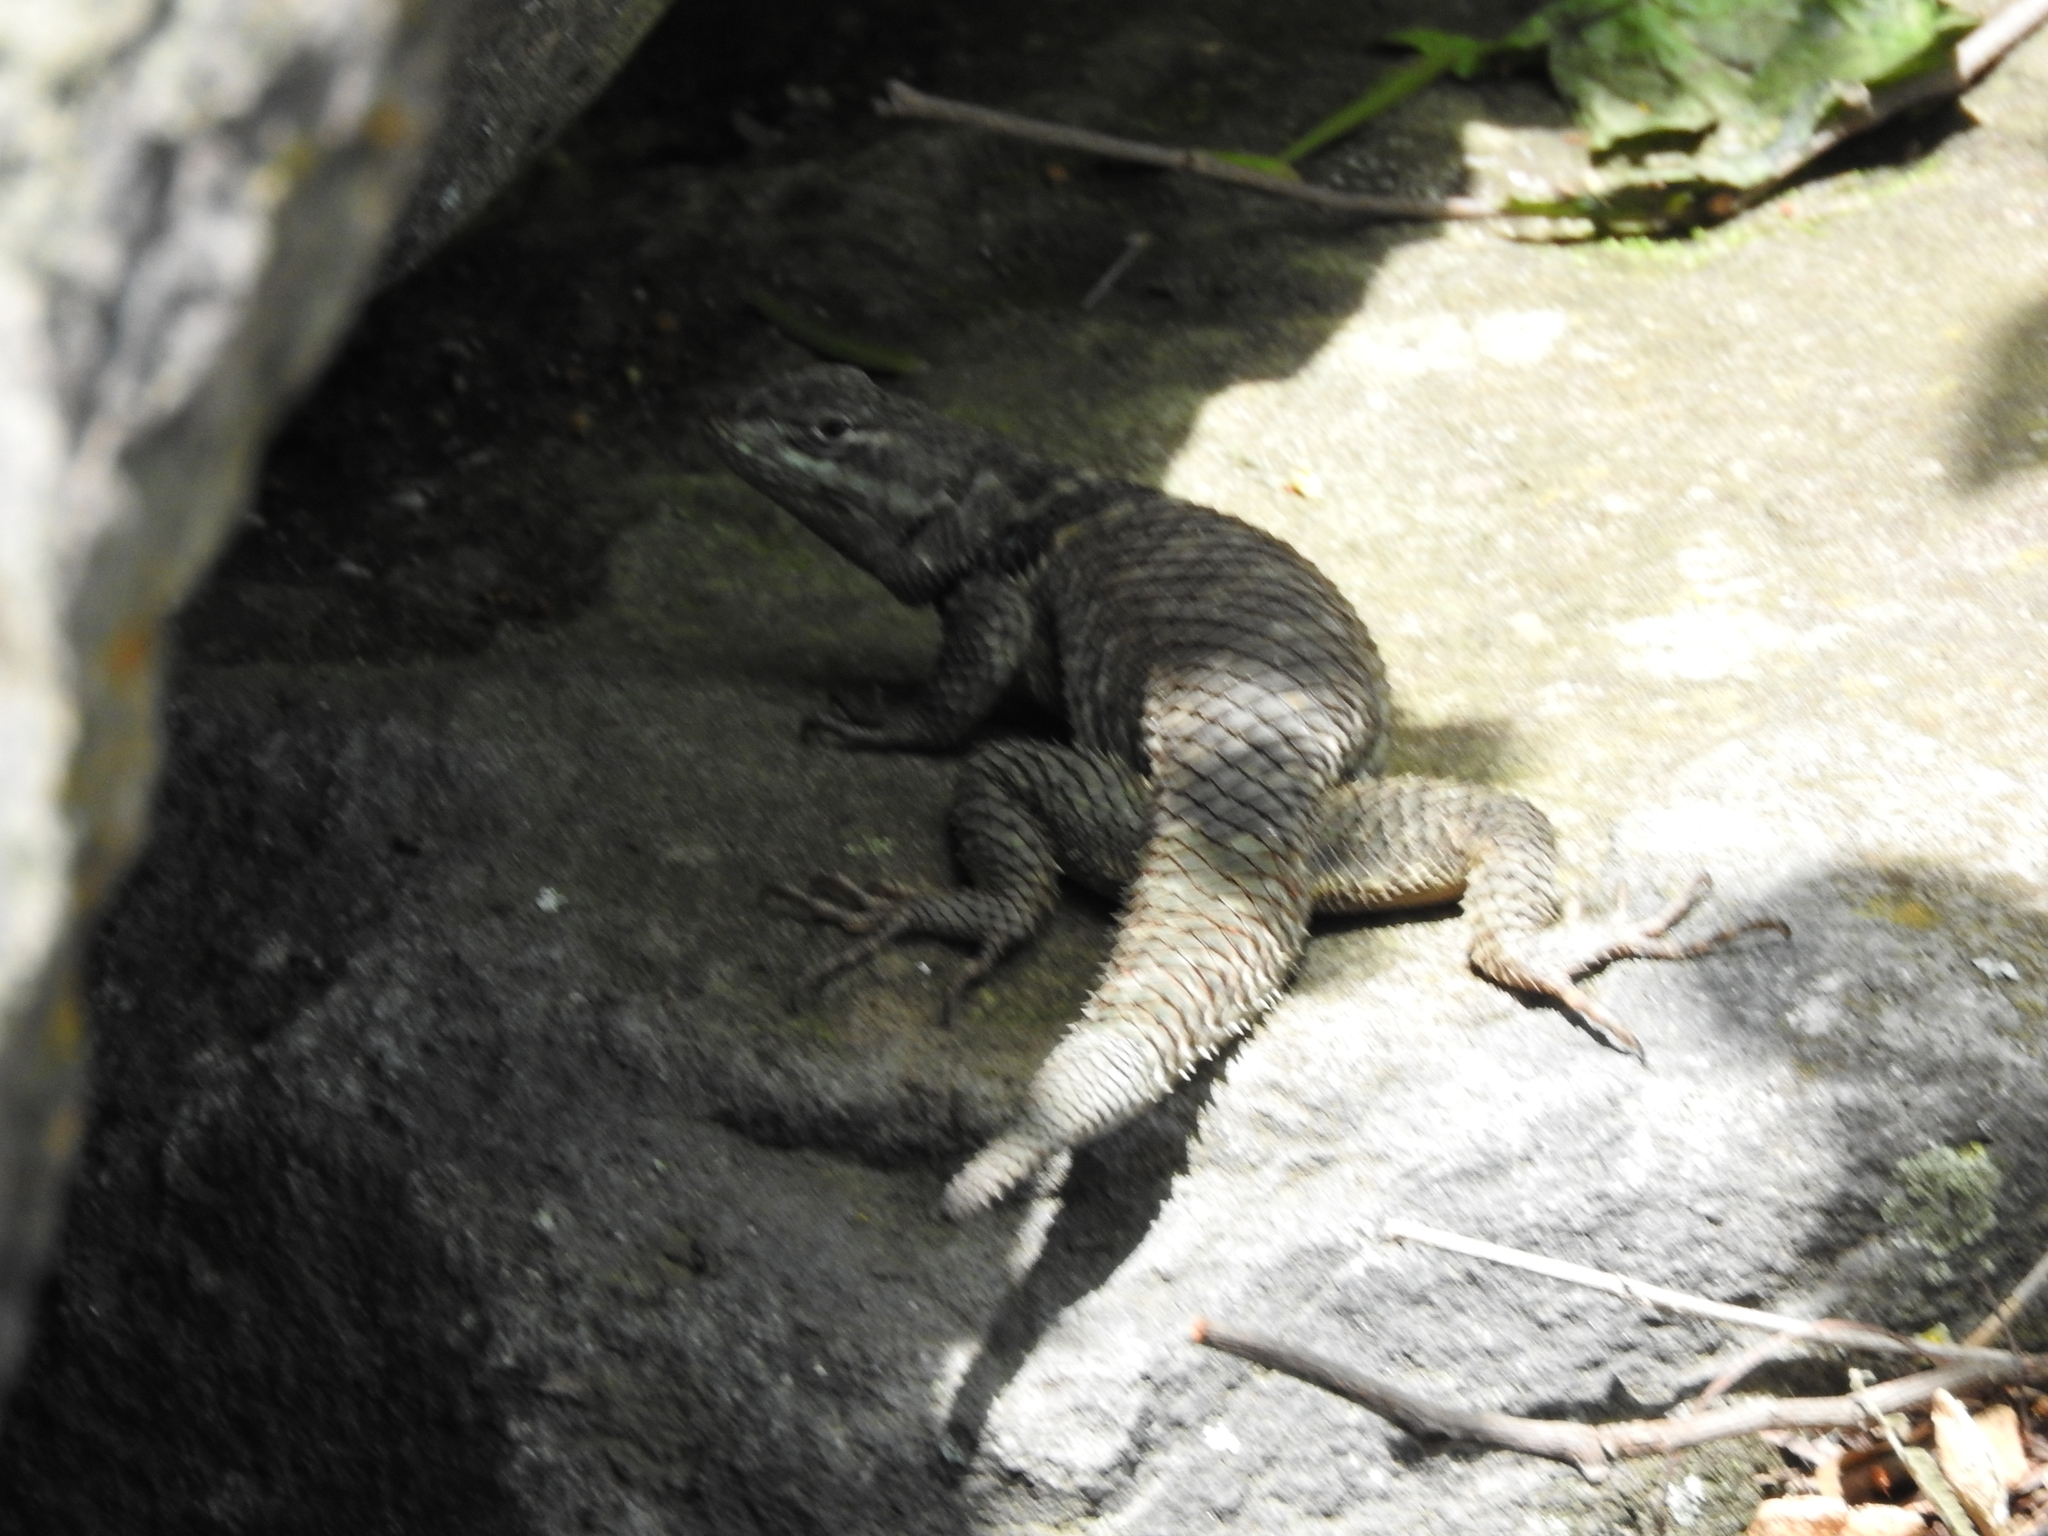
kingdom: Animalia
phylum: Chordata
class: Squamata
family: Phrynosomatidae
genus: Sceloporus
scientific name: Sceloporus torquatus
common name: Central plateau torquate lizard [melanogaster]
